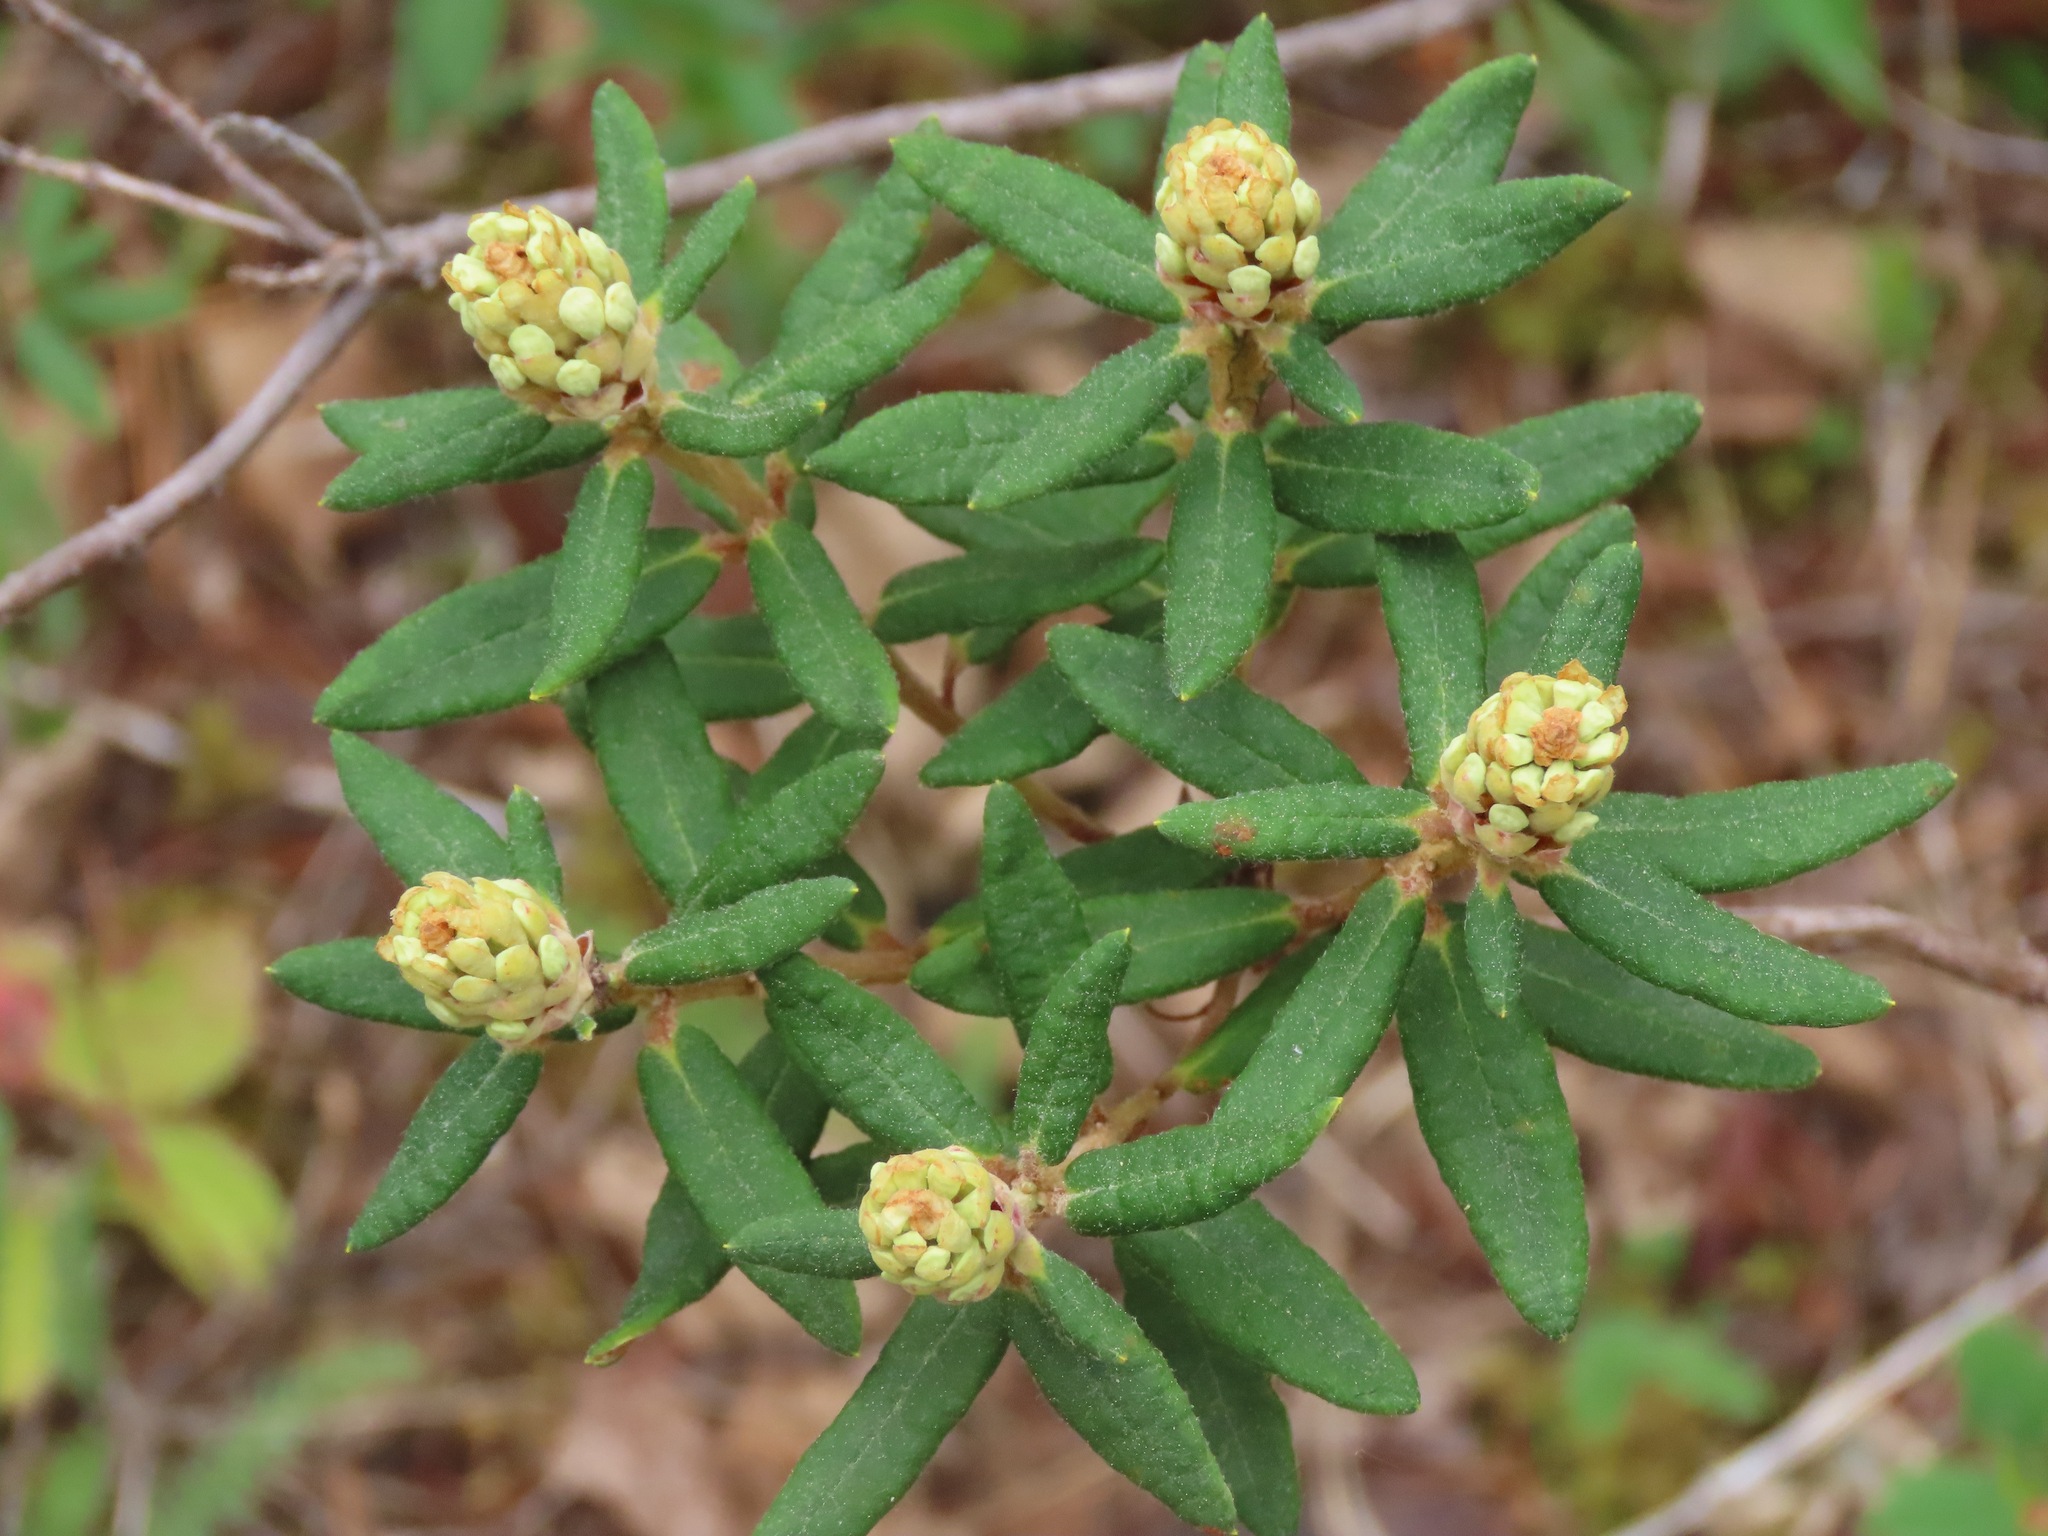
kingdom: Plantae
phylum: Tracheophyta
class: Magnoliopsida
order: Ericales
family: Ericaceae
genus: Rhododendron
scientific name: Rhododendron groenlandicum
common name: Bog labrador tea
